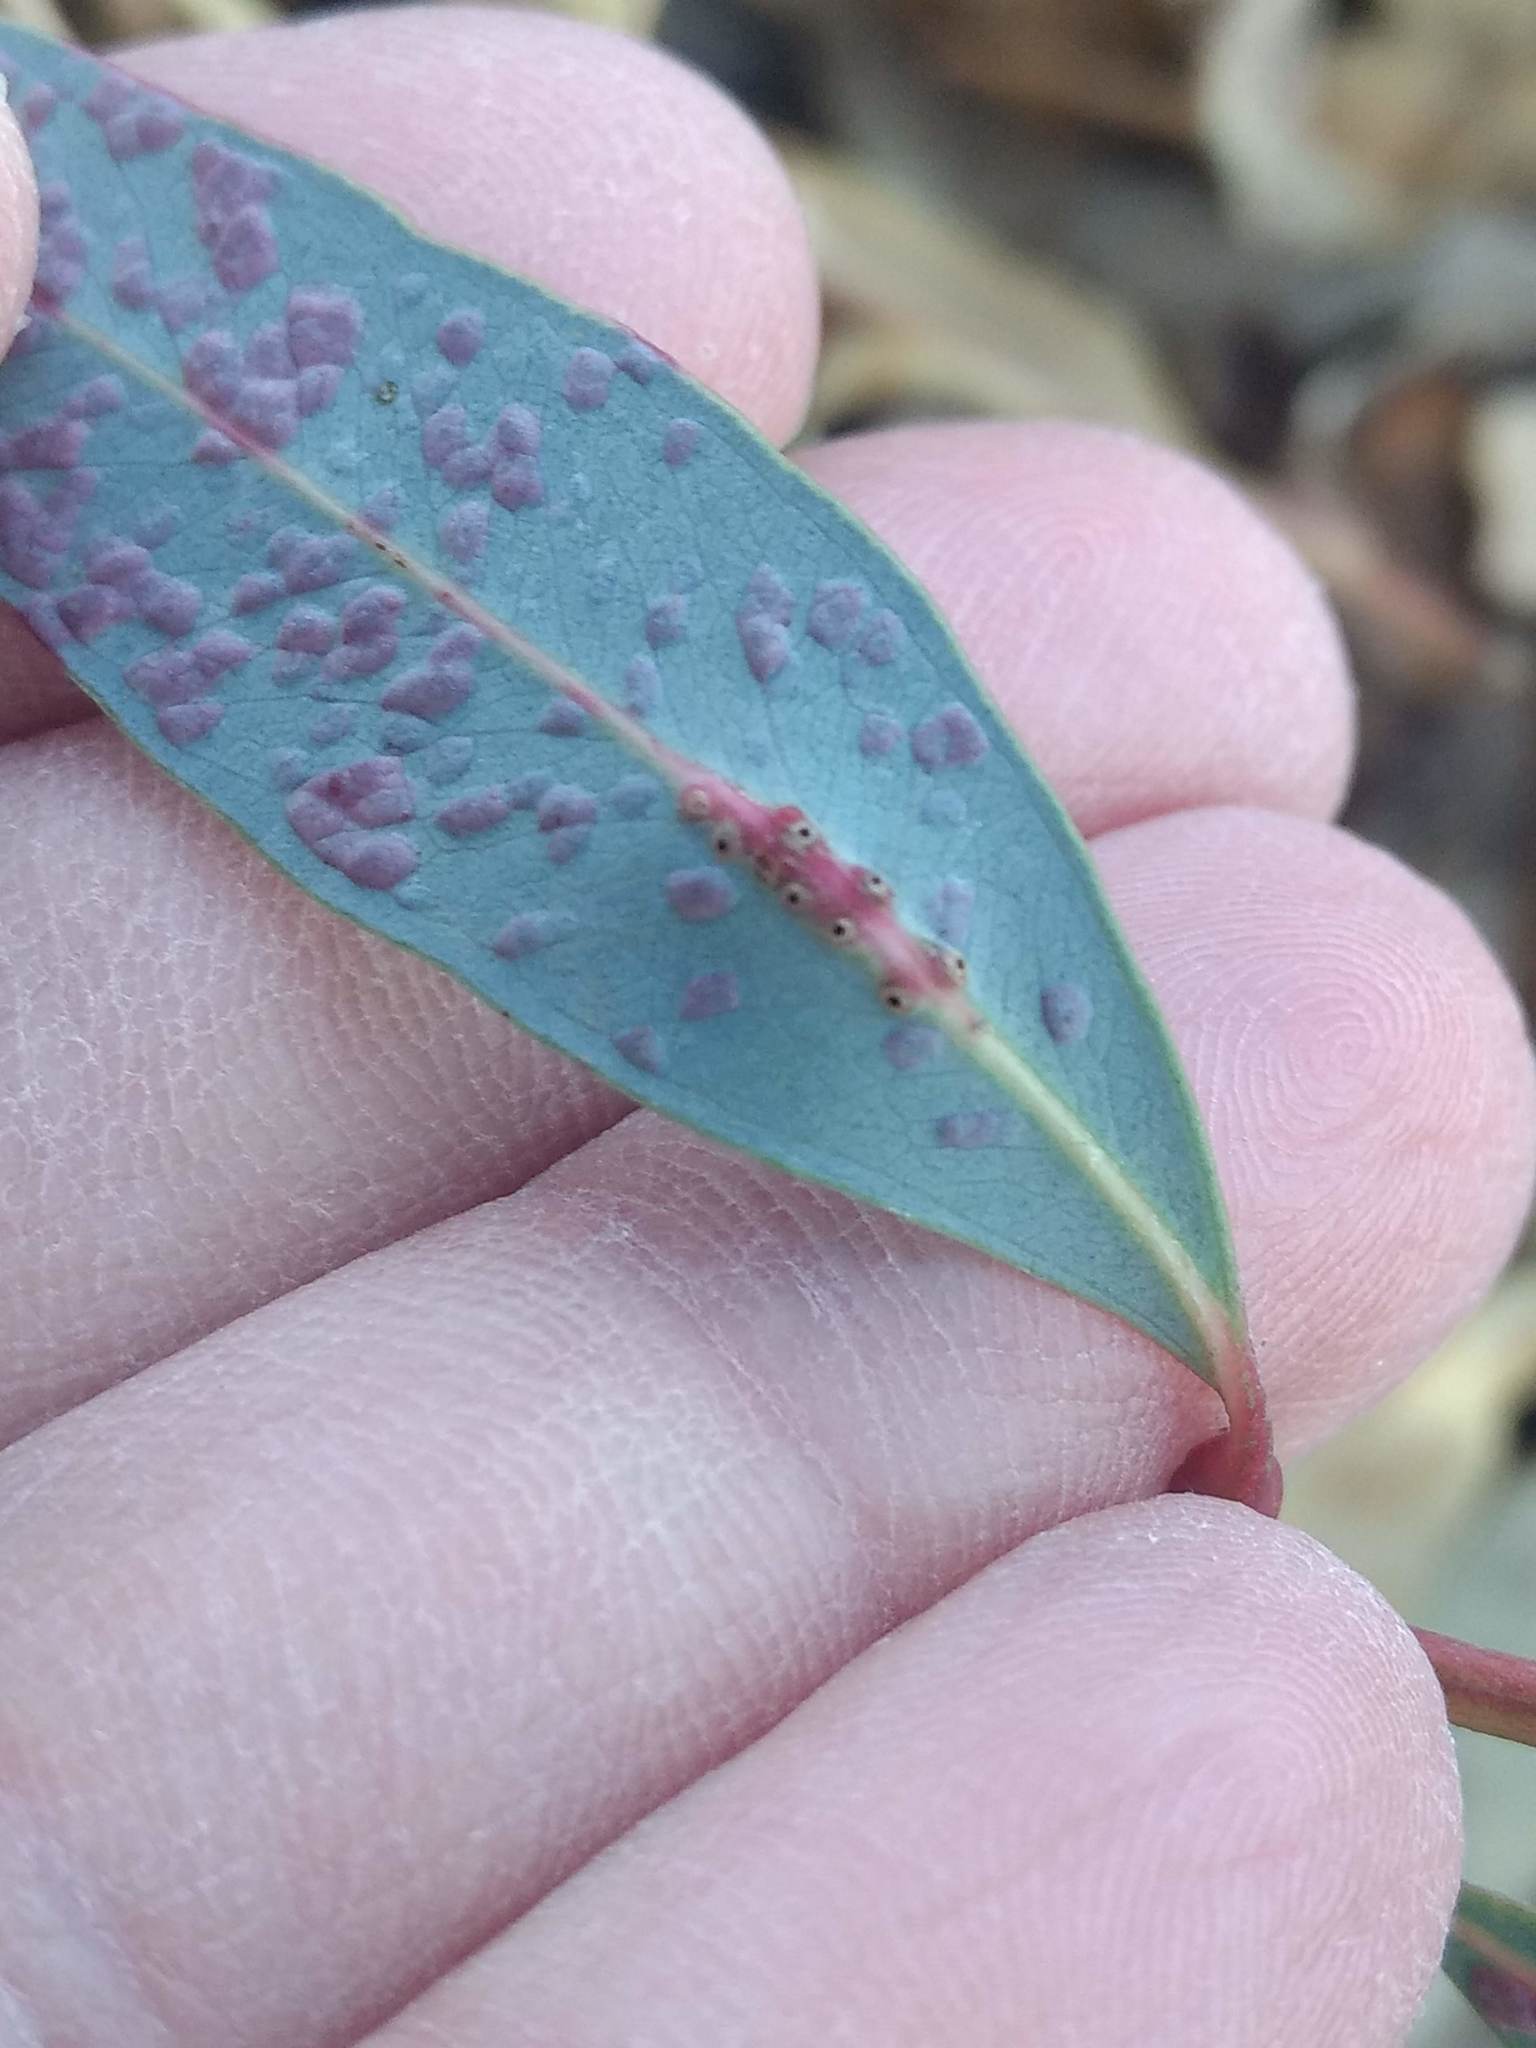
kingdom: Animalia
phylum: Arthropoda
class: Insecta
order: Hymenoptera
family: Eulophidae
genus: Leptocybe
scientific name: Leptocybe invasa
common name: Gall wasp
